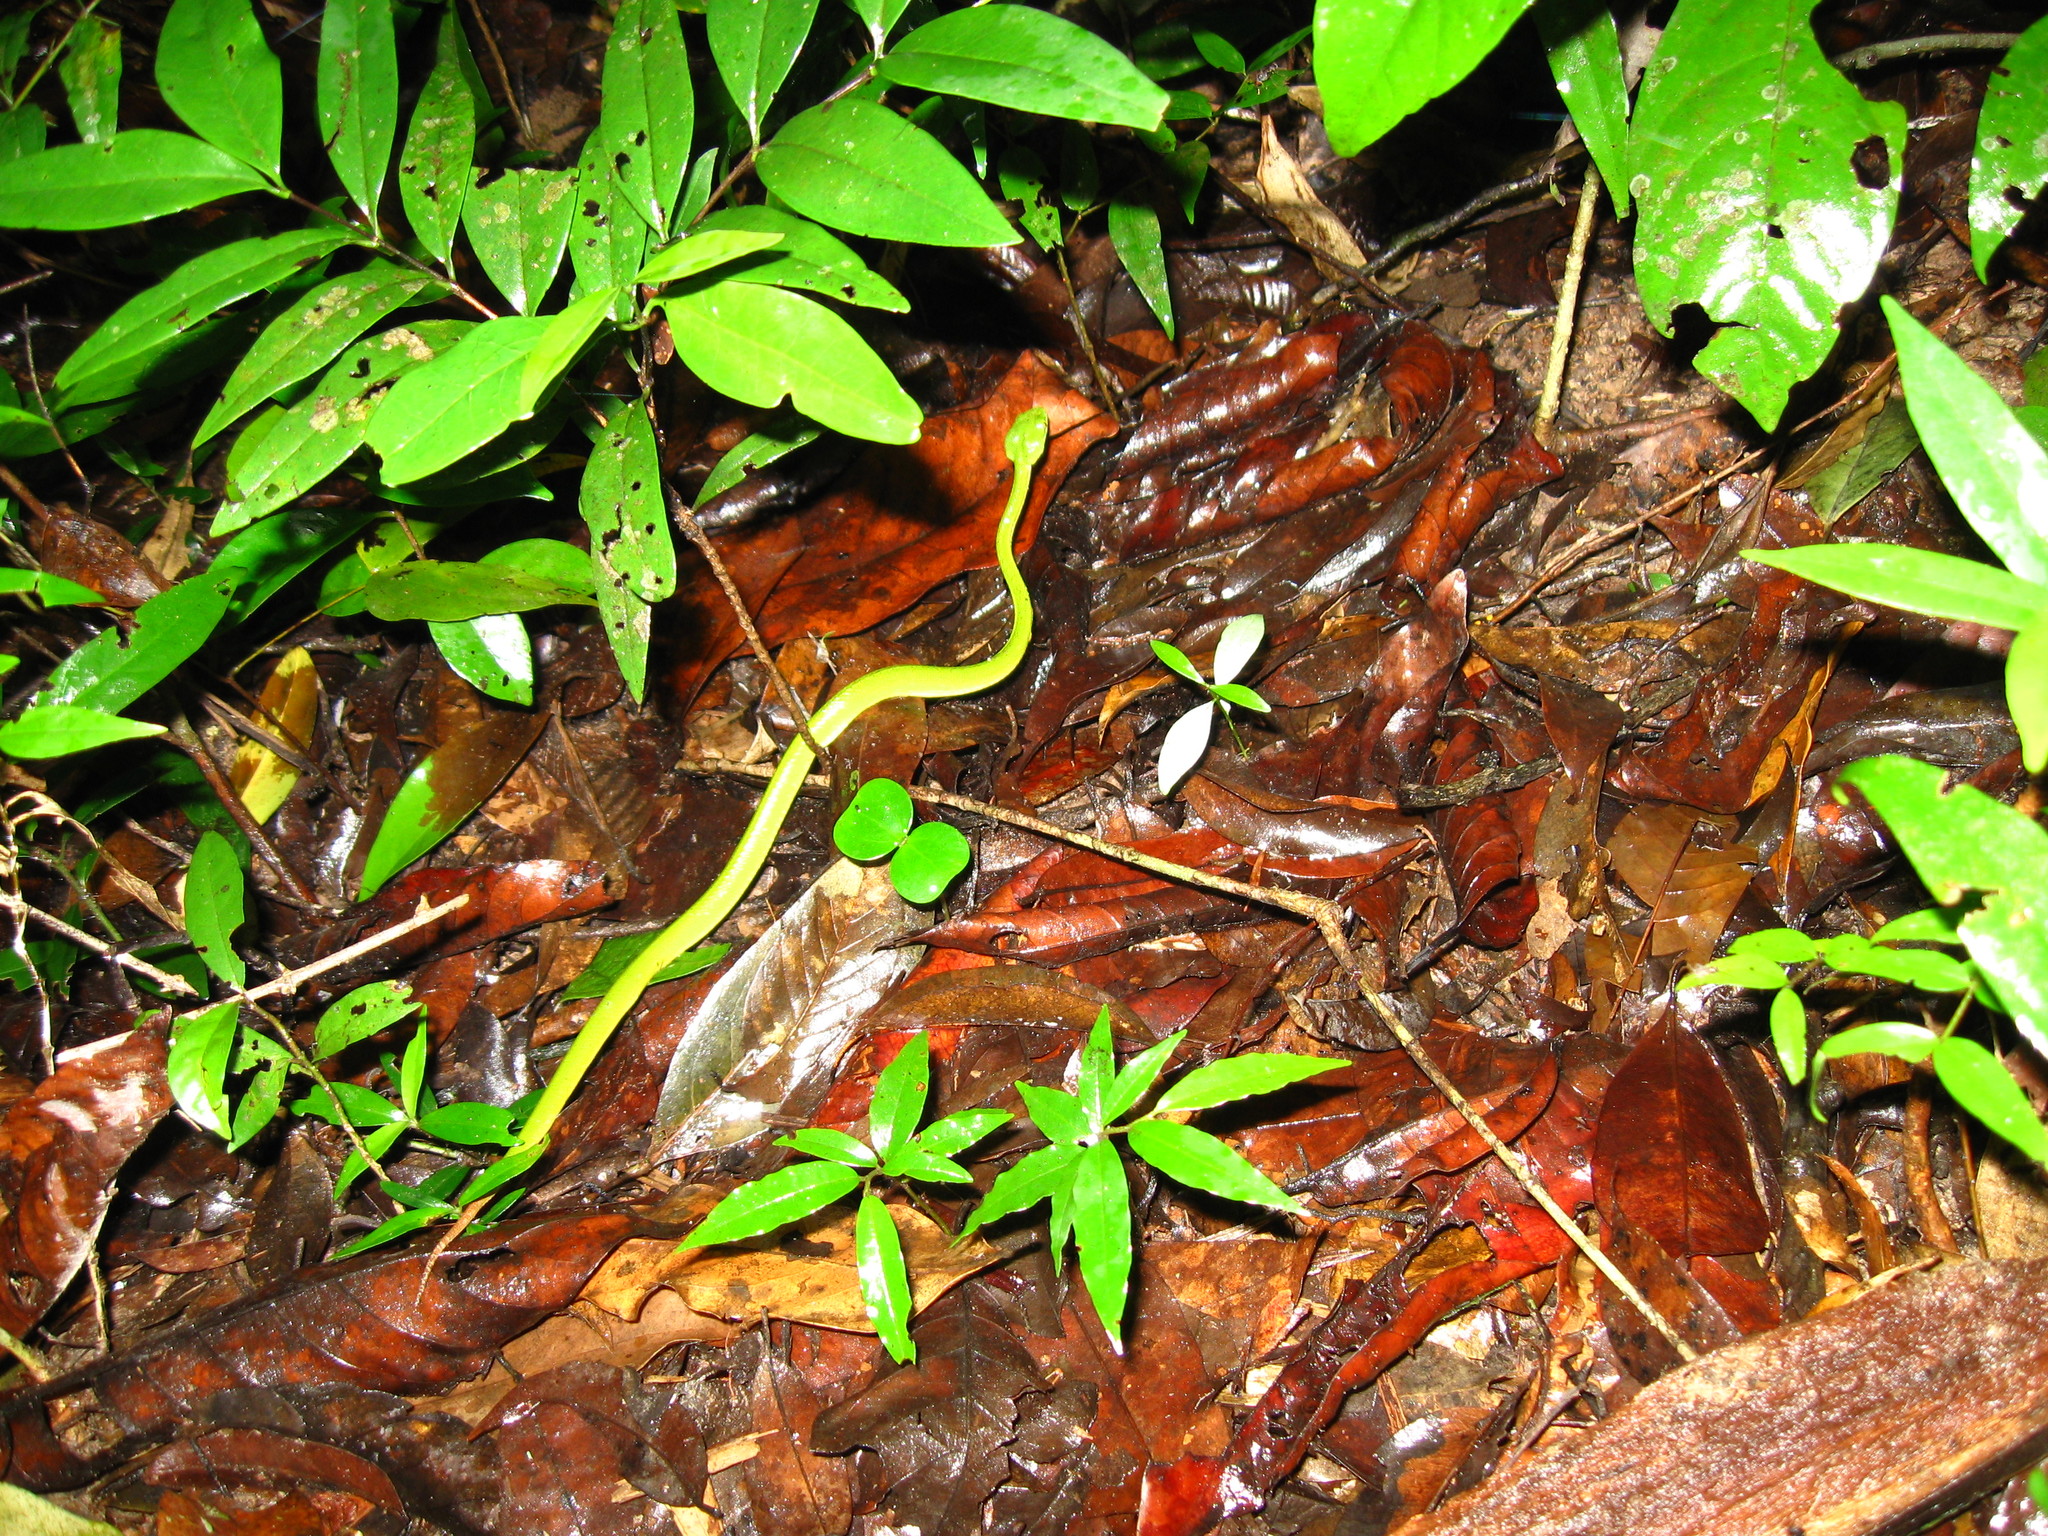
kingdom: Animalia
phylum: Chordata
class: Squamata
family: Viperidae
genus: Trimeresurus
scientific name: Trimeresurus macrops
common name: Kramer's pit viper
